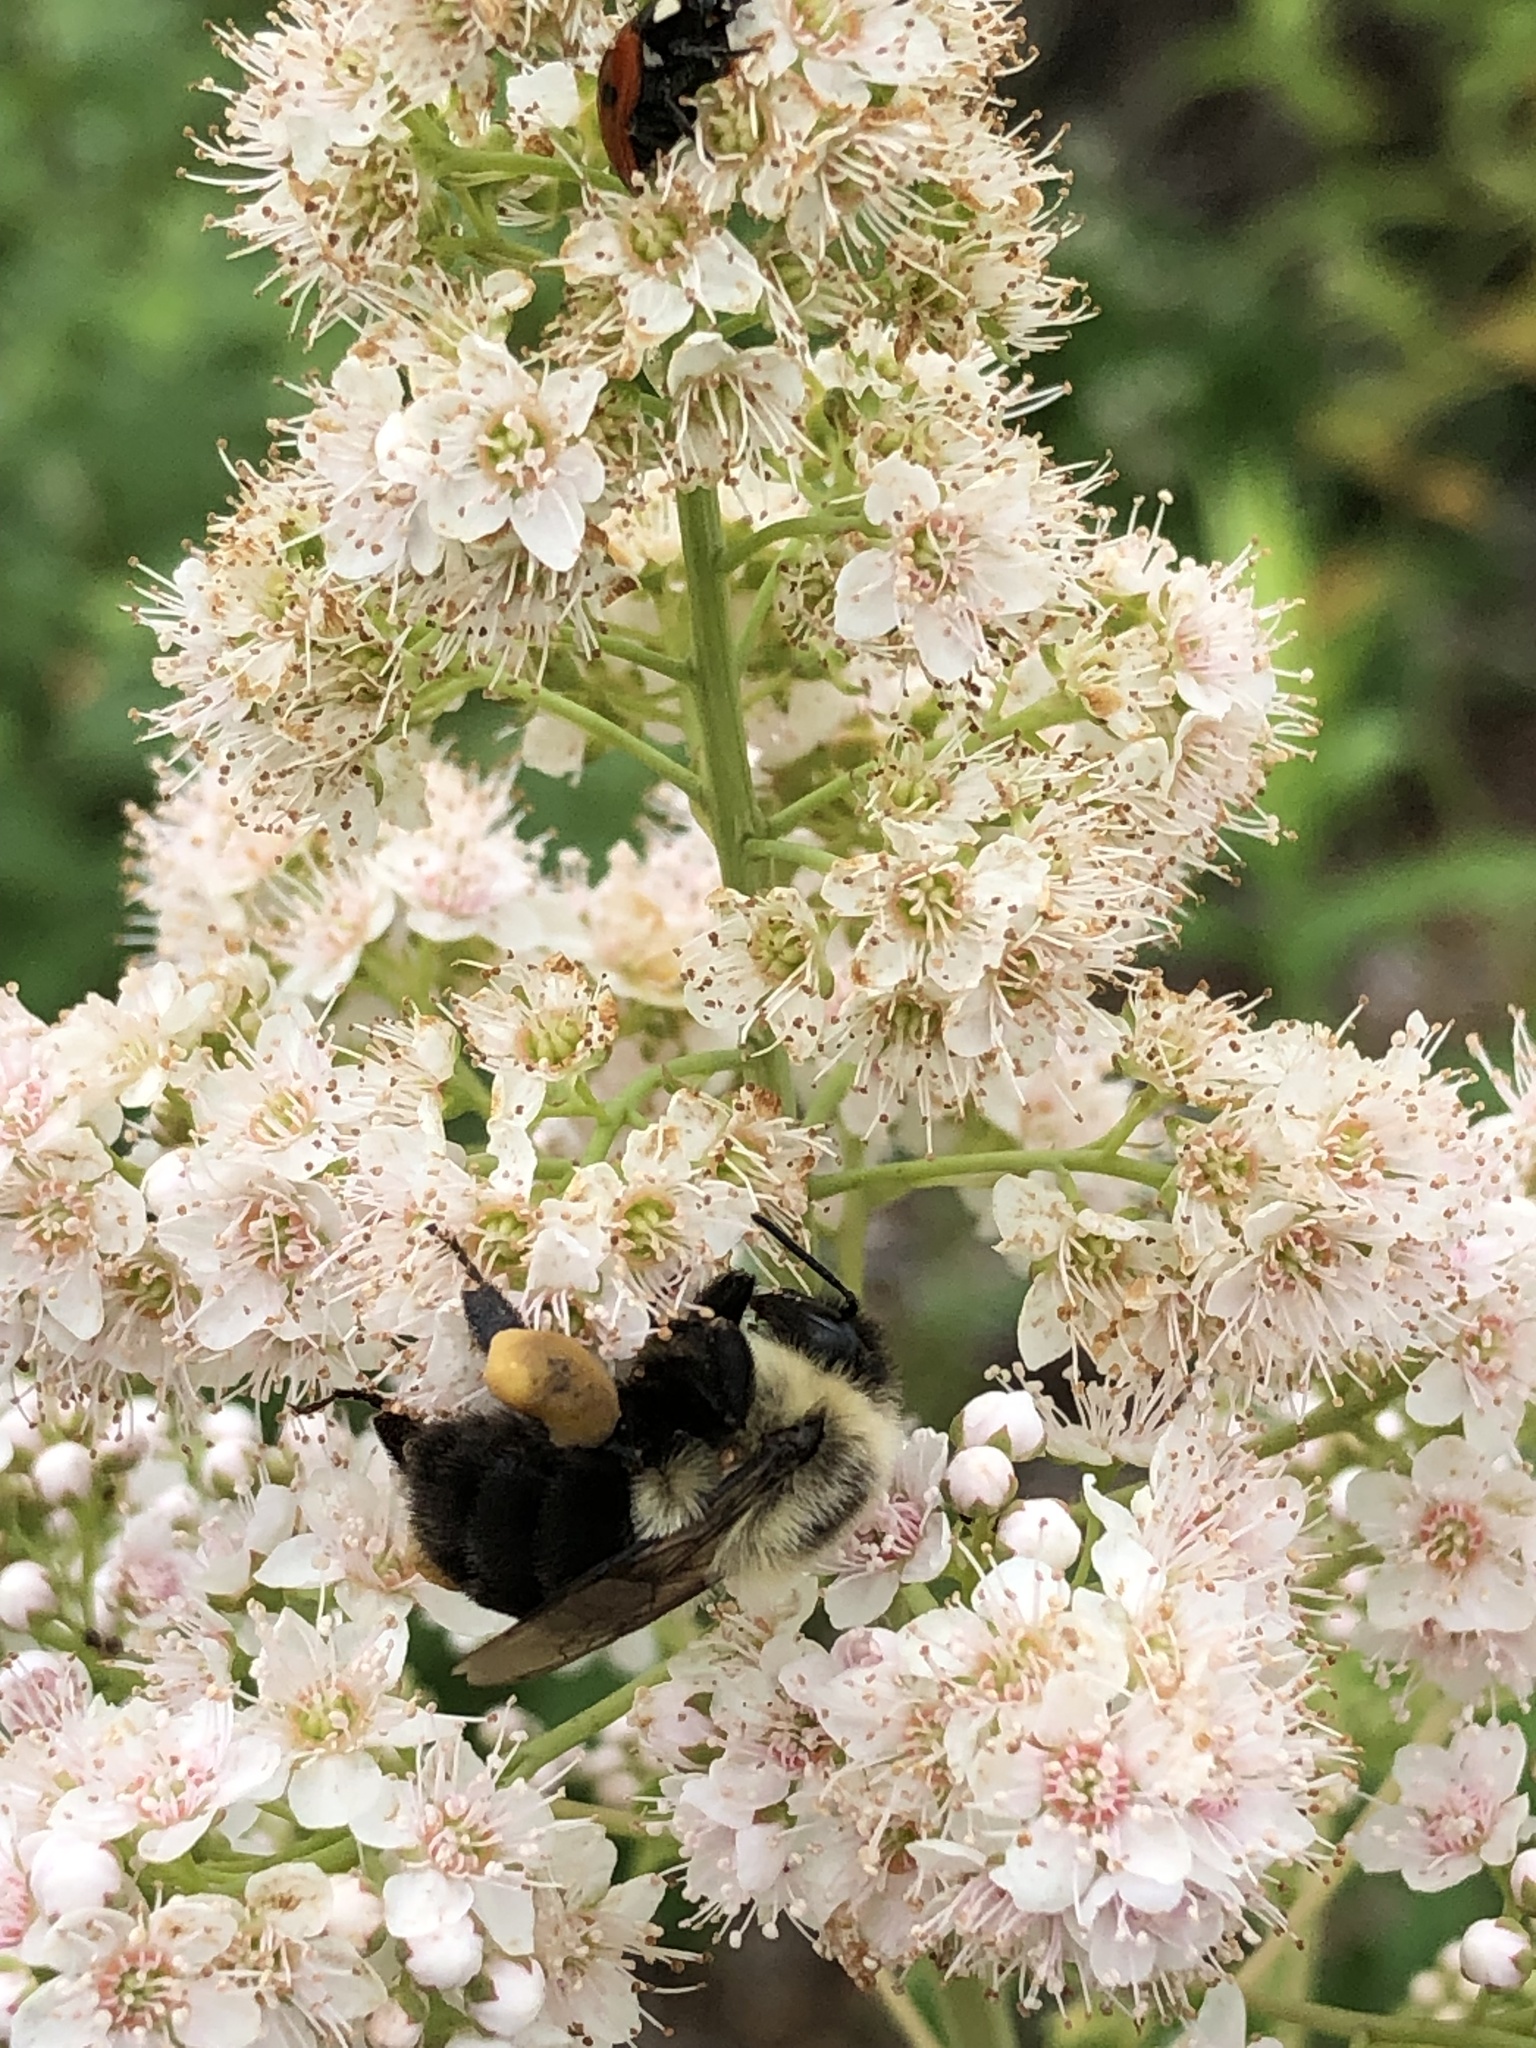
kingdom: Animalia
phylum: Arthropoda
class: Insecta
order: Hymenoptera
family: Apidae
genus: Bombus
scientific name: Bombus impatiens
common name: Common eastern bumble bee
